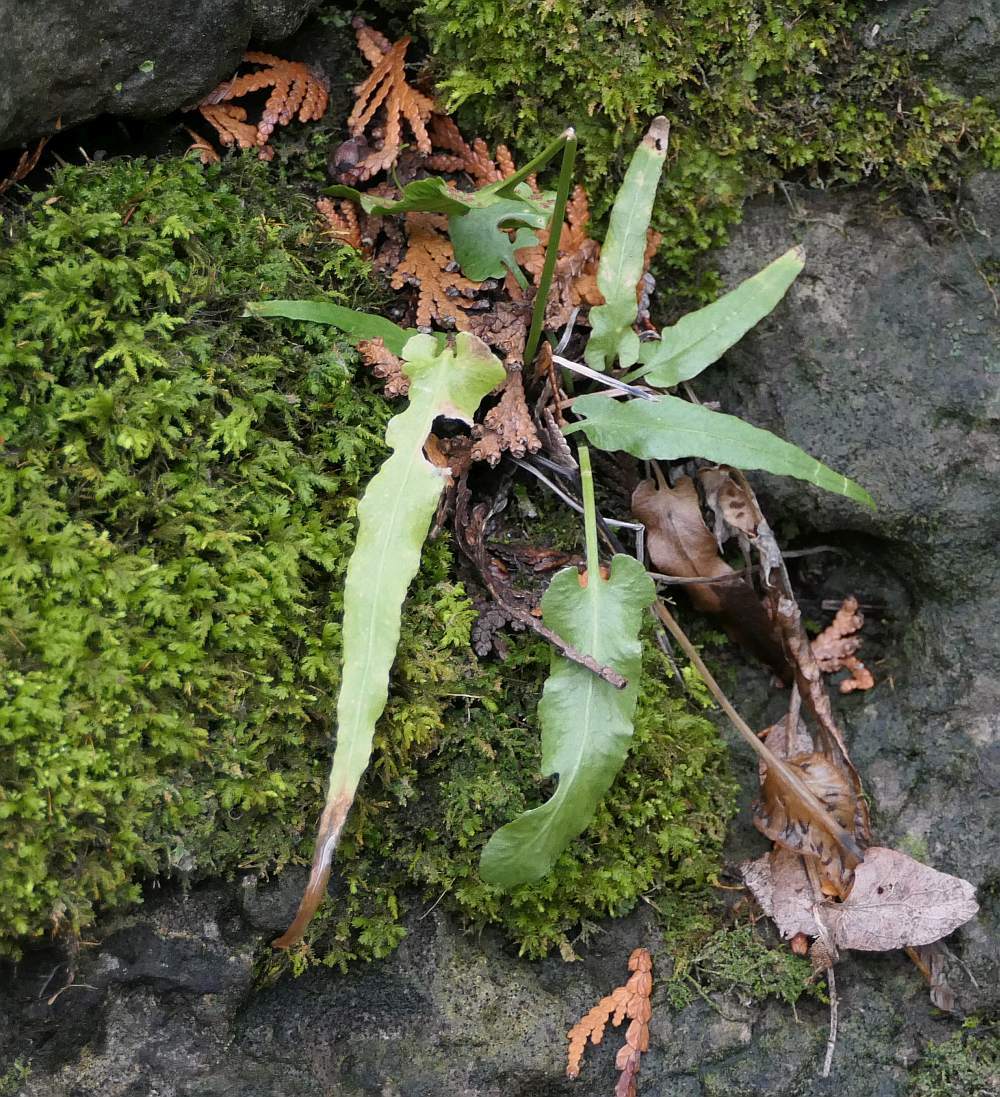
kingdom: Plantae
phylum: Tracheophyta
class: Polypodiopsida
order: Polypodiales
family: Aspleniaceae
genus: Asplenium
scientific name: Asplenium rhizophyllum
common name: Walking fern
